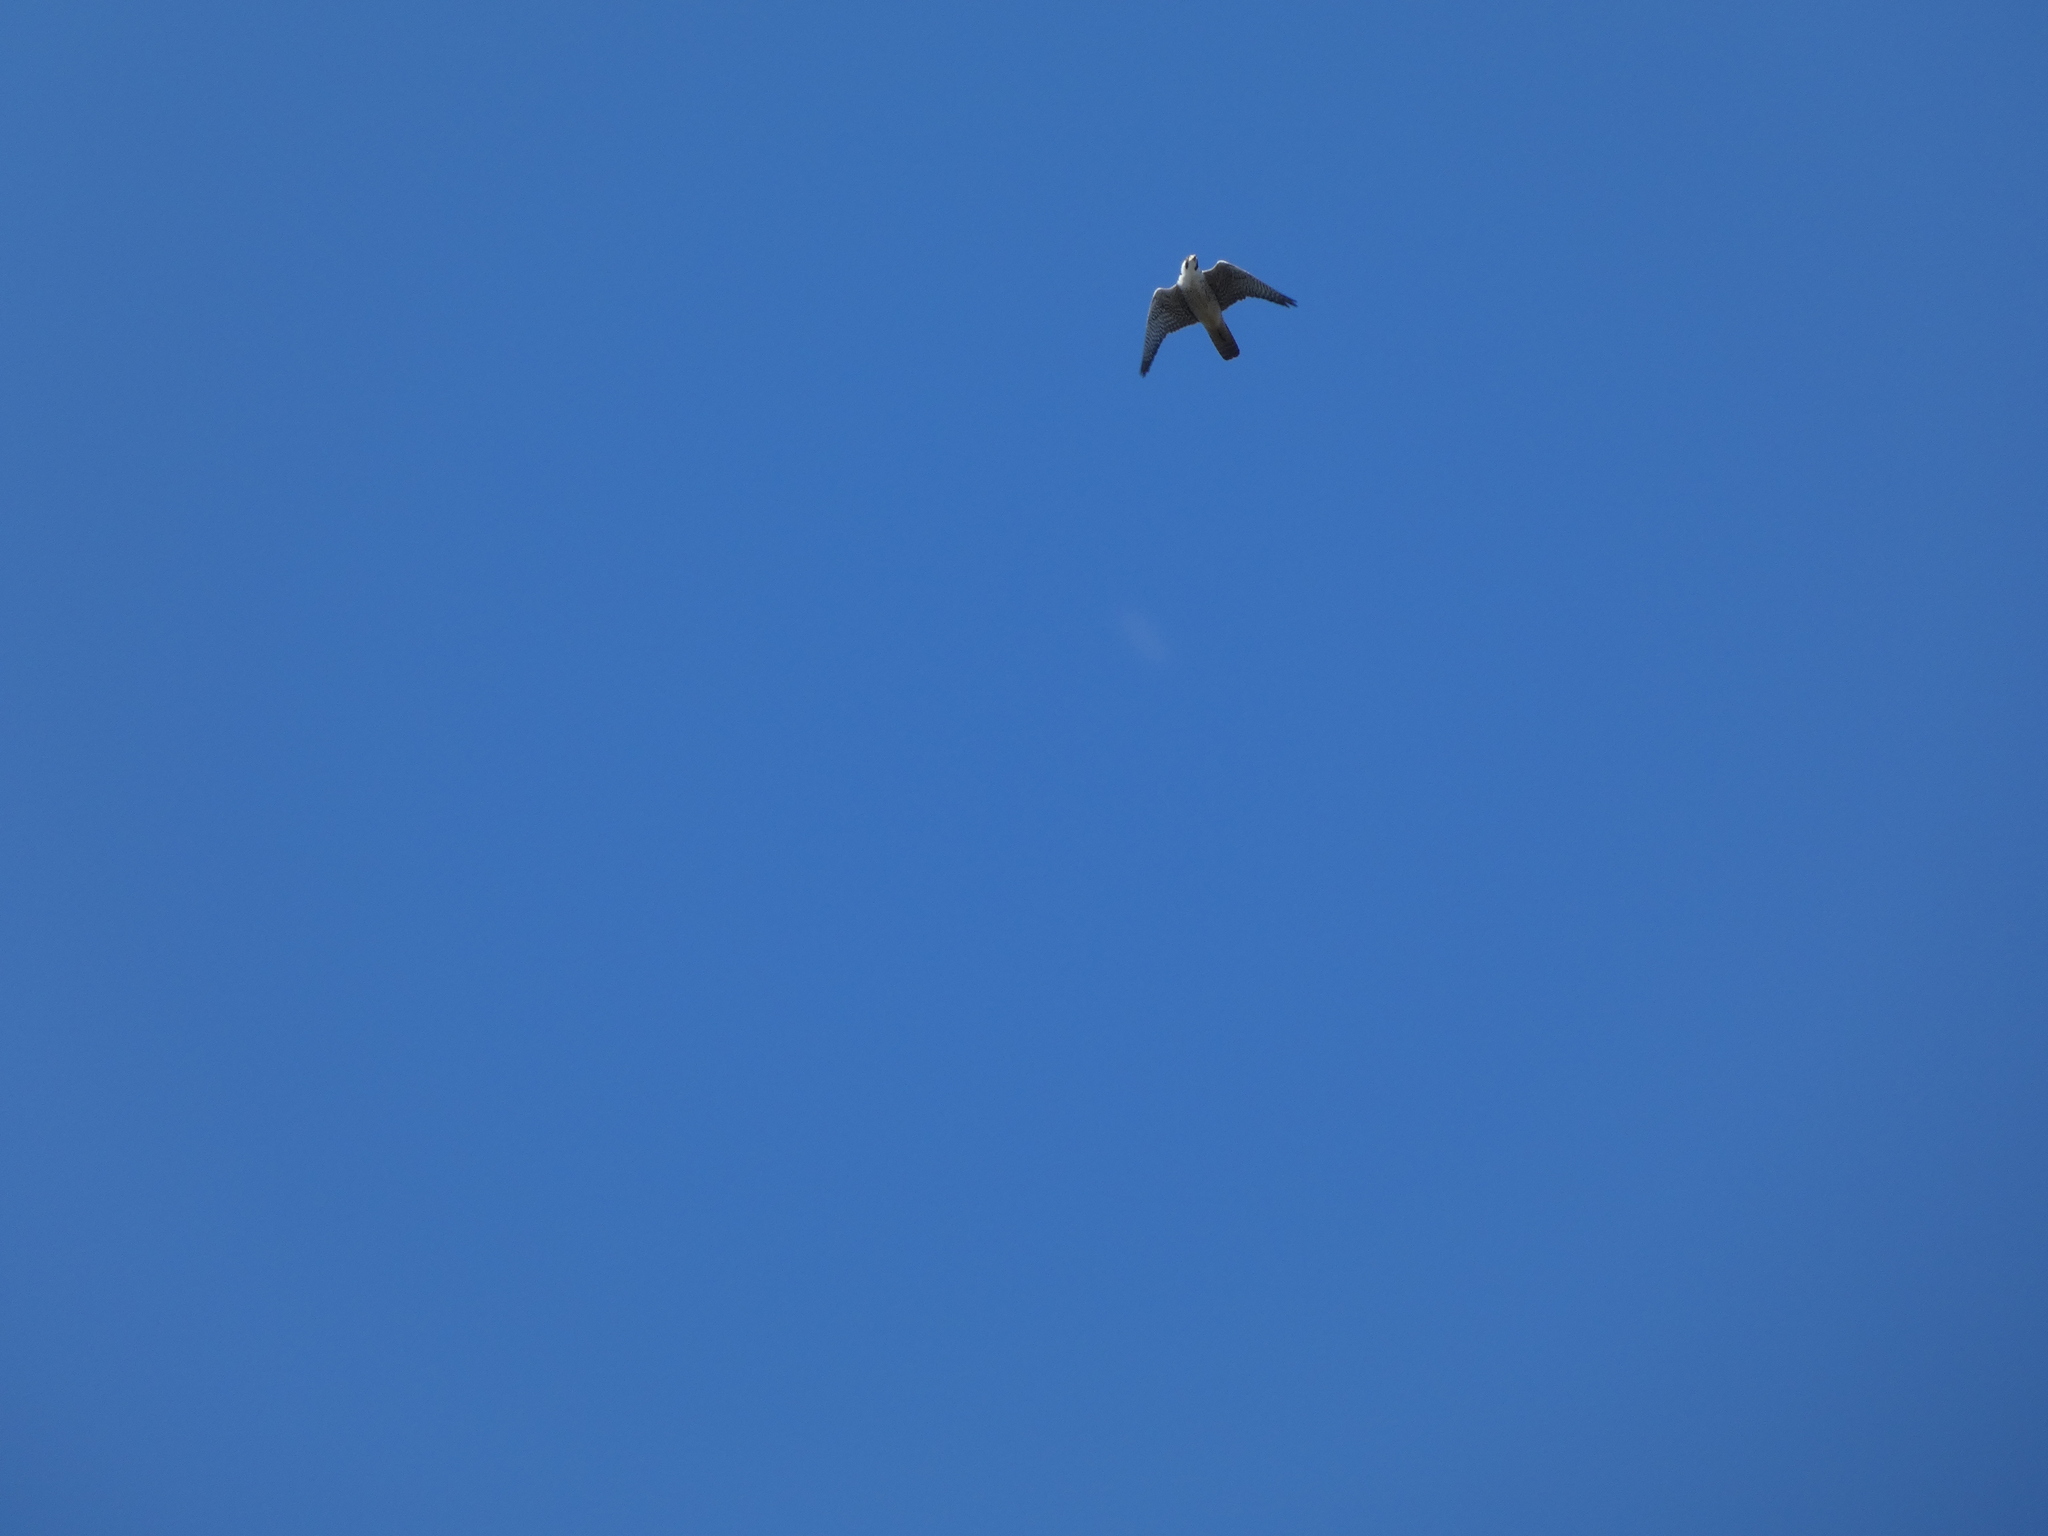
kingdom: Animalia
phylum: Chordata
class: Aves
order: Falconiformes
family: Falconidae
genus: Falco
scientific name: Falco peregrinus
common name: Peregrine falcon
